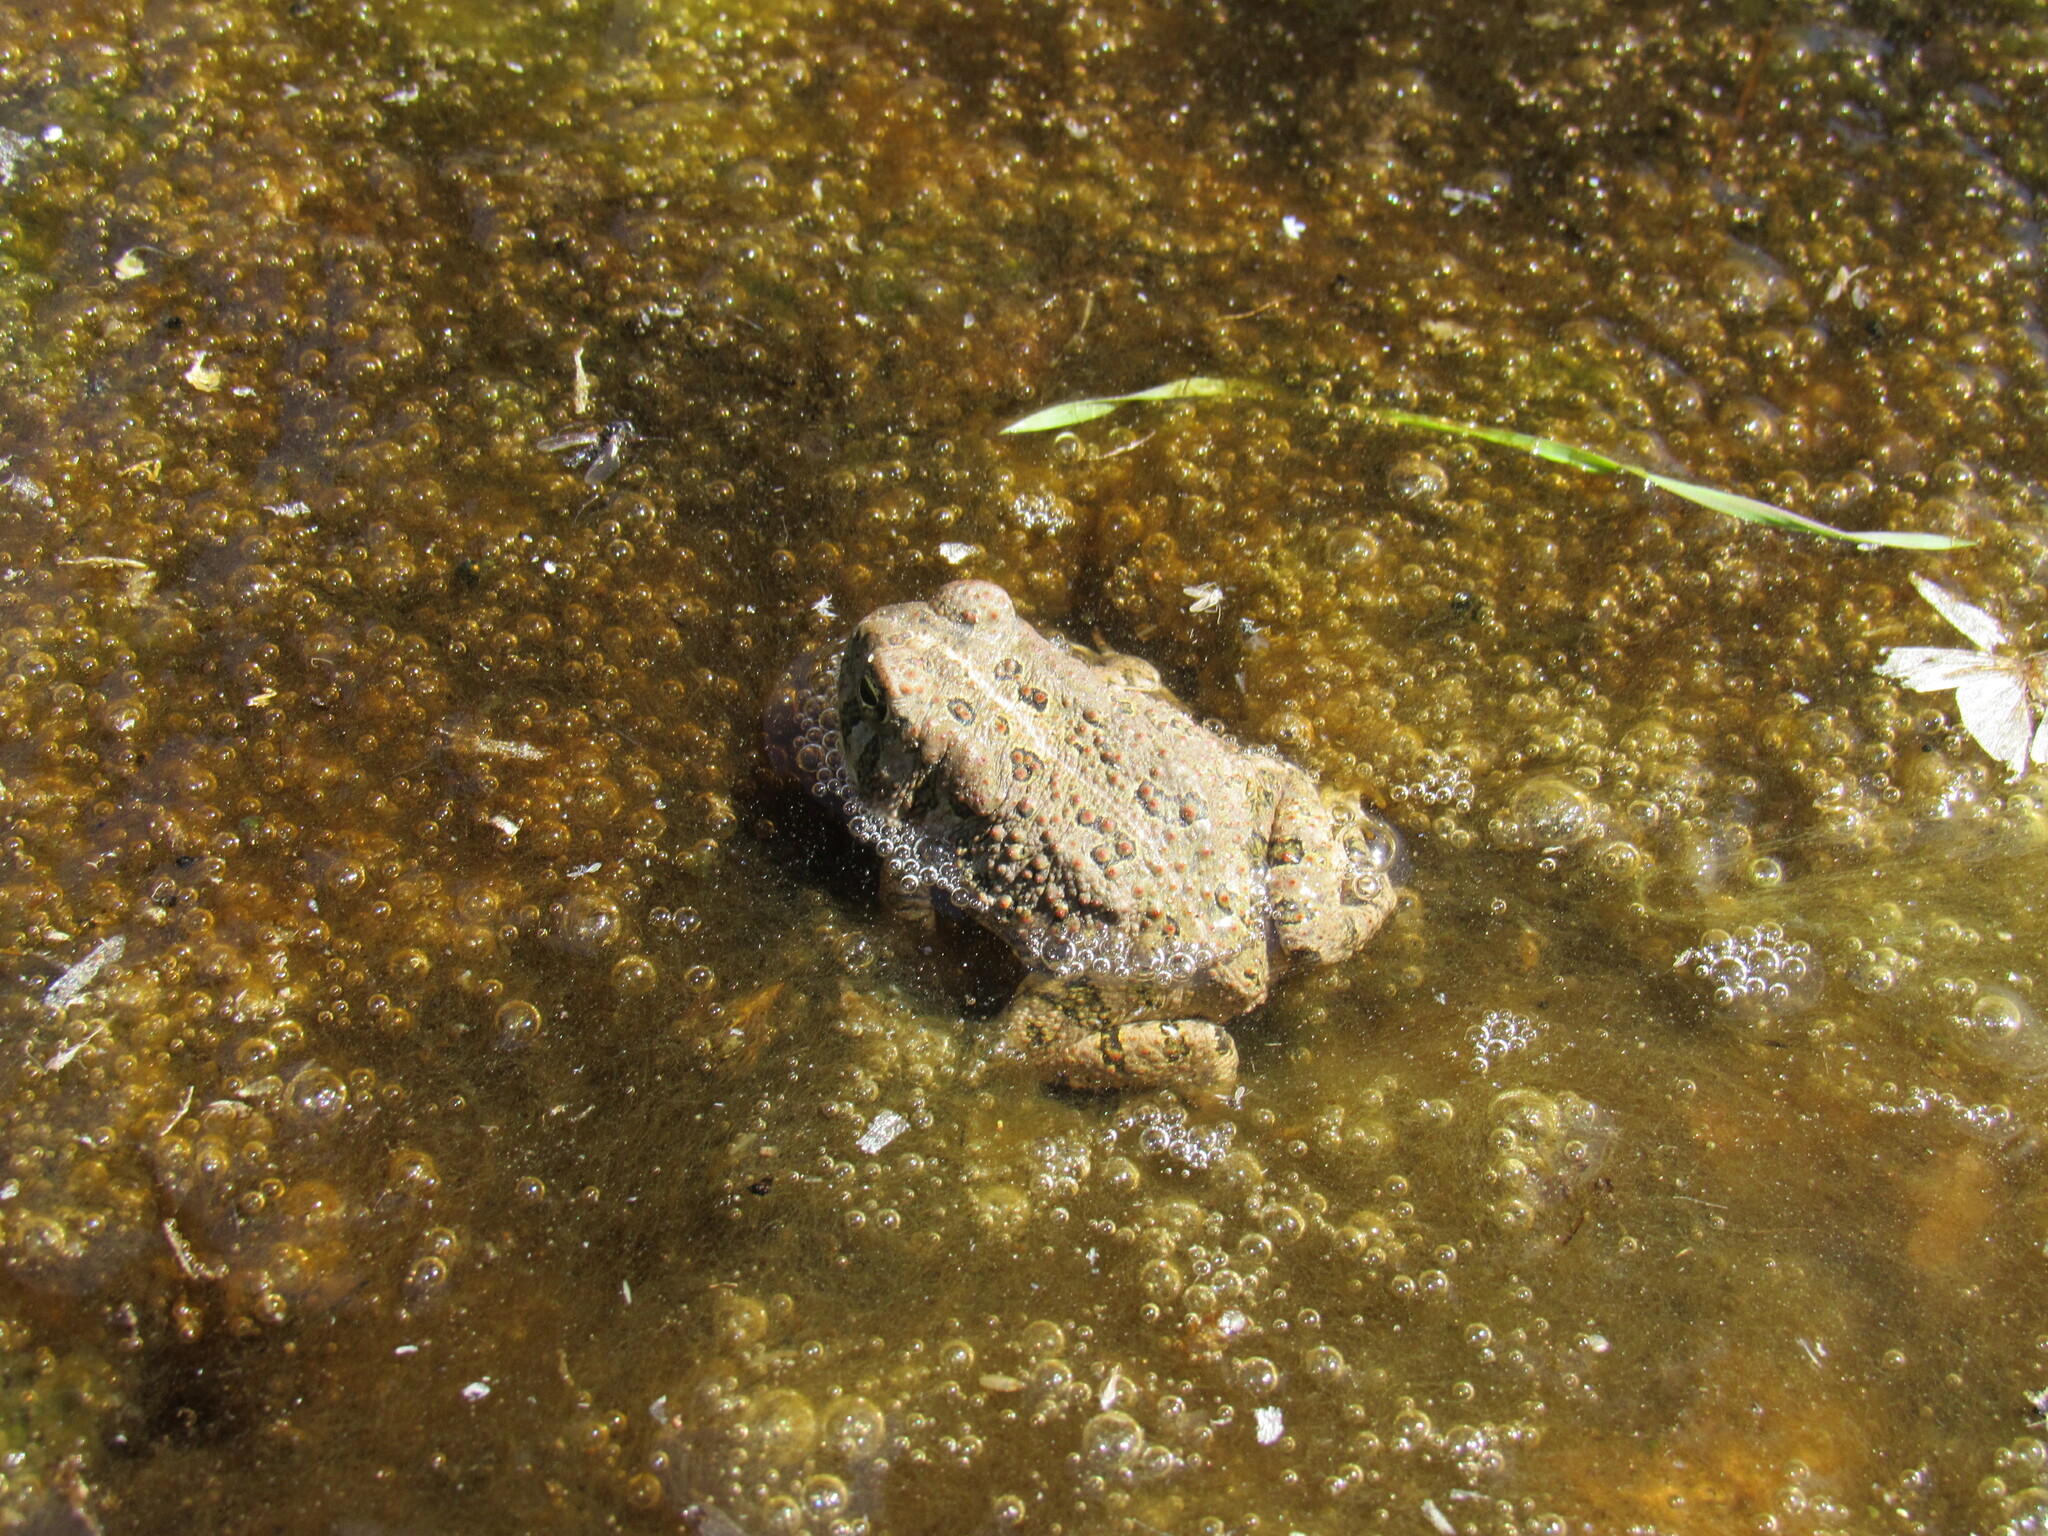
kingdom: Animalia
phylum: Chordata
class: Amphibia
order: Anura
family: Bufonidae
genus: Anaxyrus
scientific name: Anaxyrus woodhousii
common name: Woodhouse's toad
